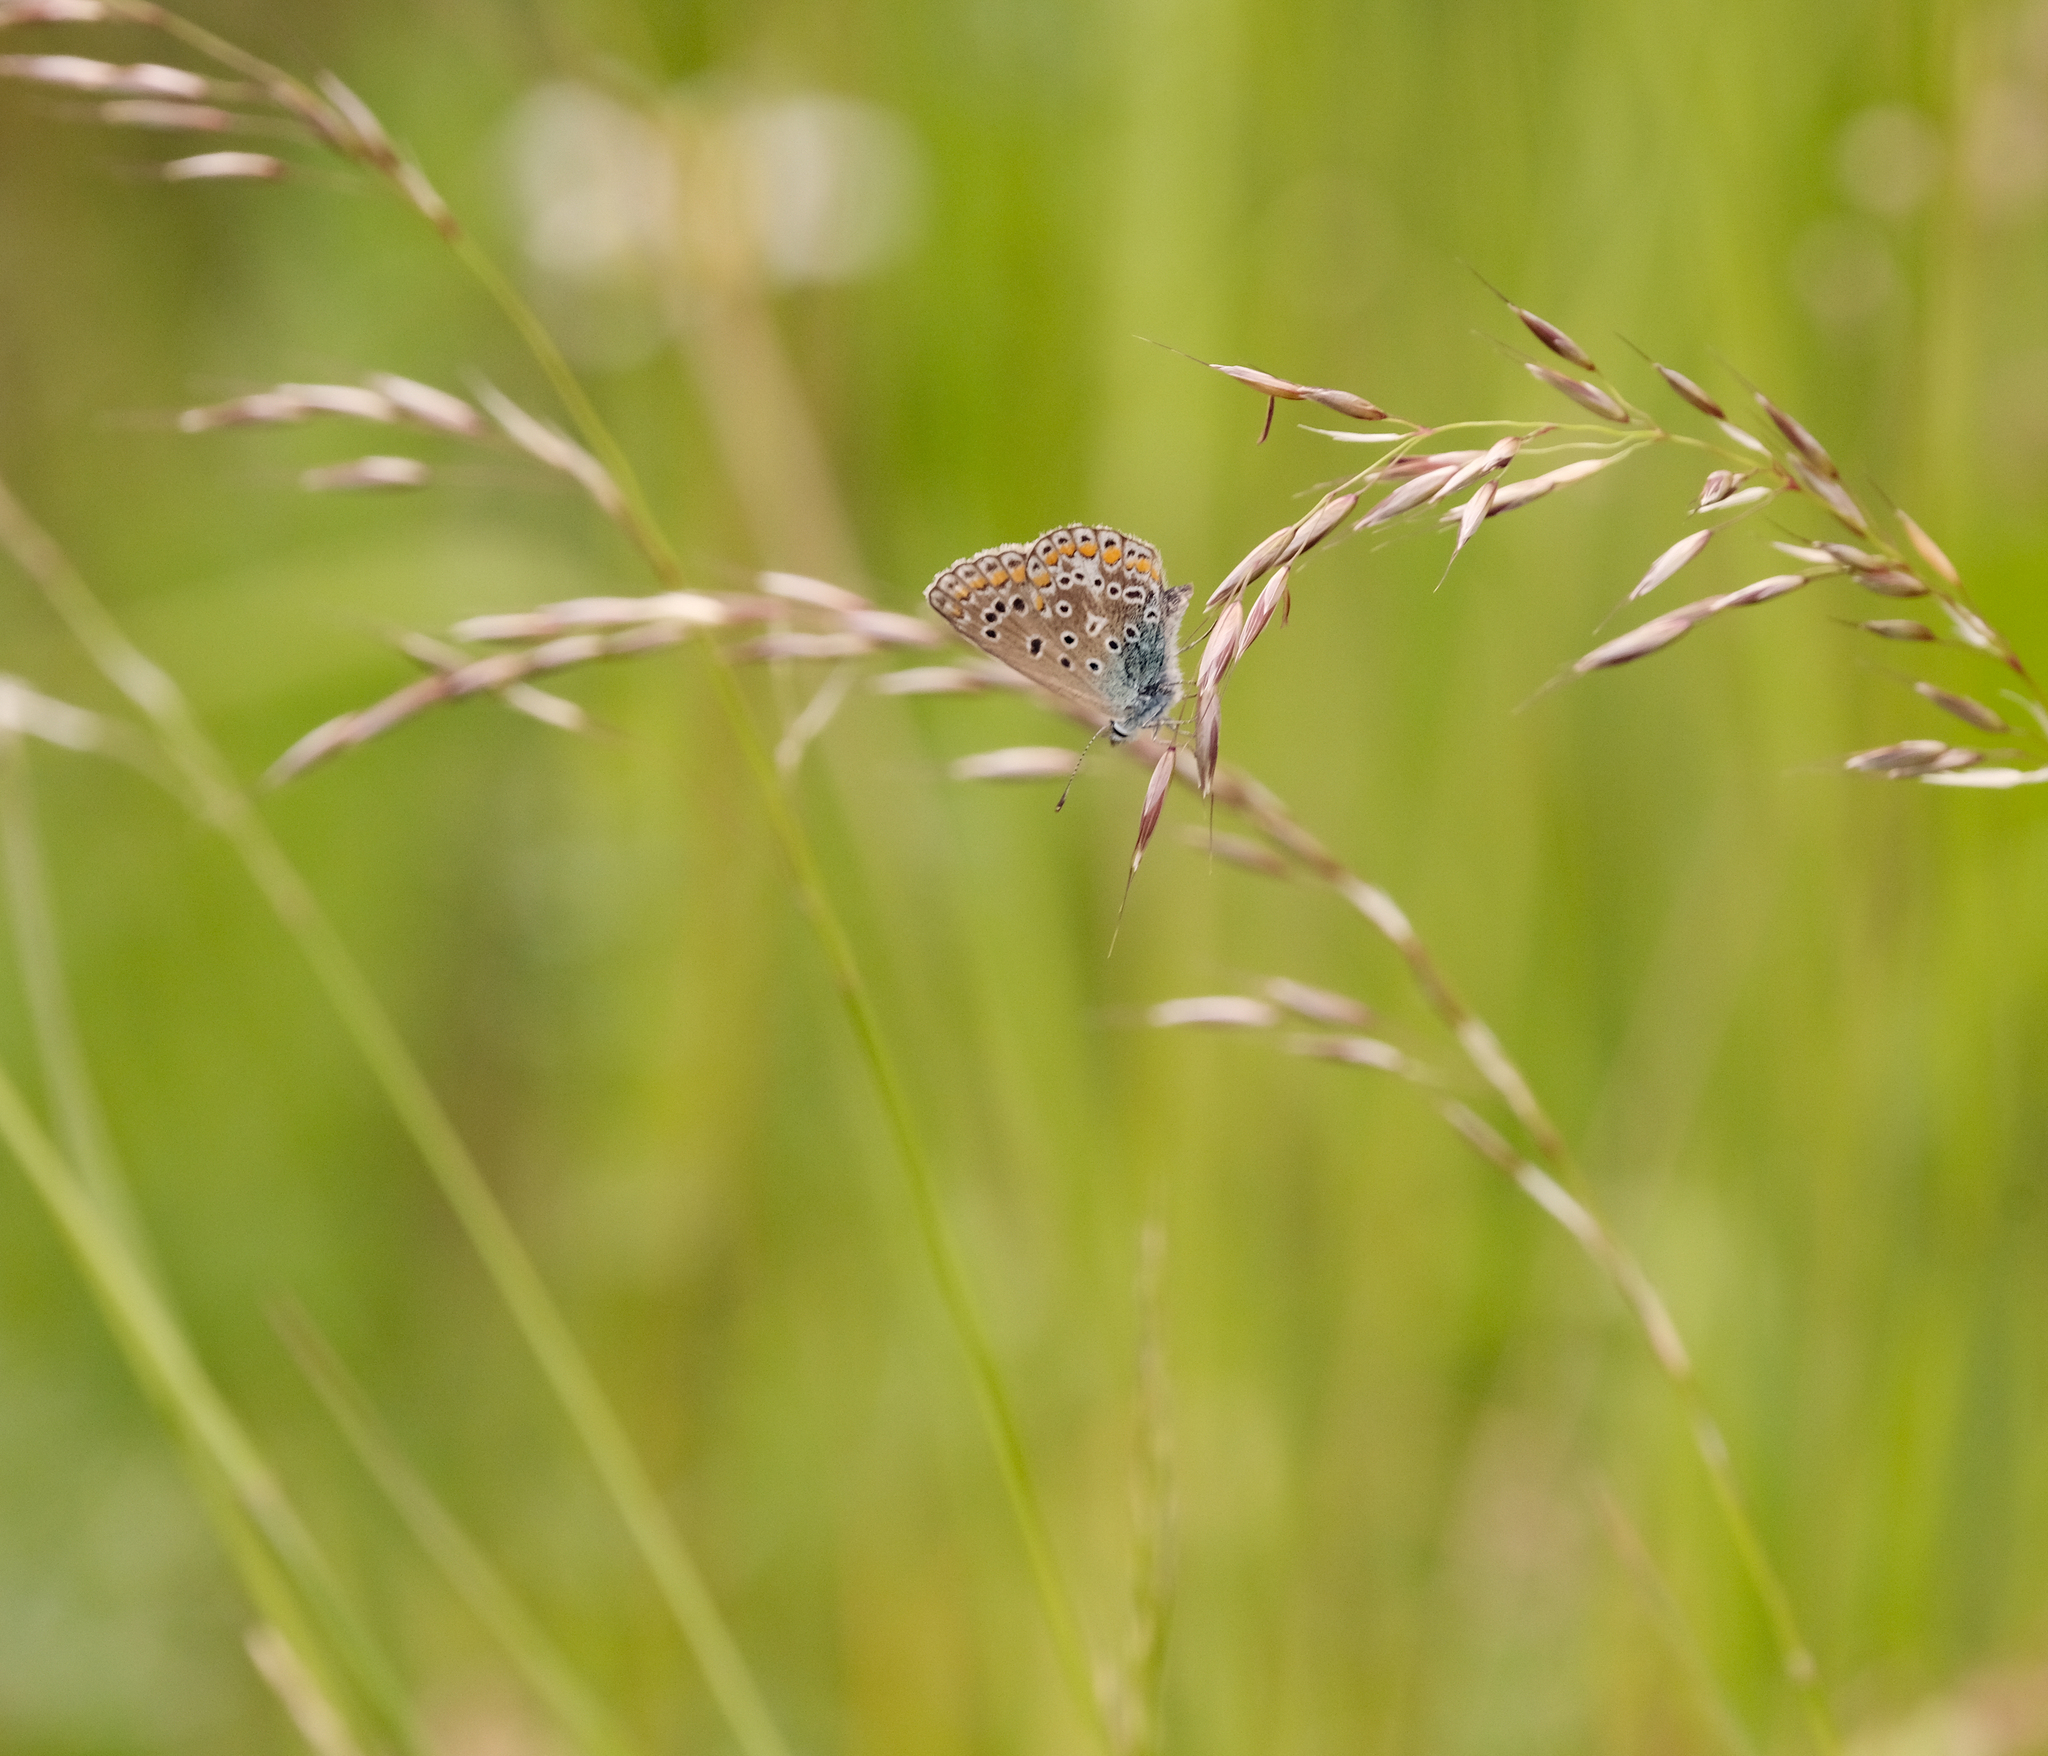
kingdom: Animalia
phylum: Arthropoda
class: Insecta
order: Lepidoptera
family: Lycaenidae
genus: Polyommatus
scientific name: Polyommatus icarus
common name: Common blue
